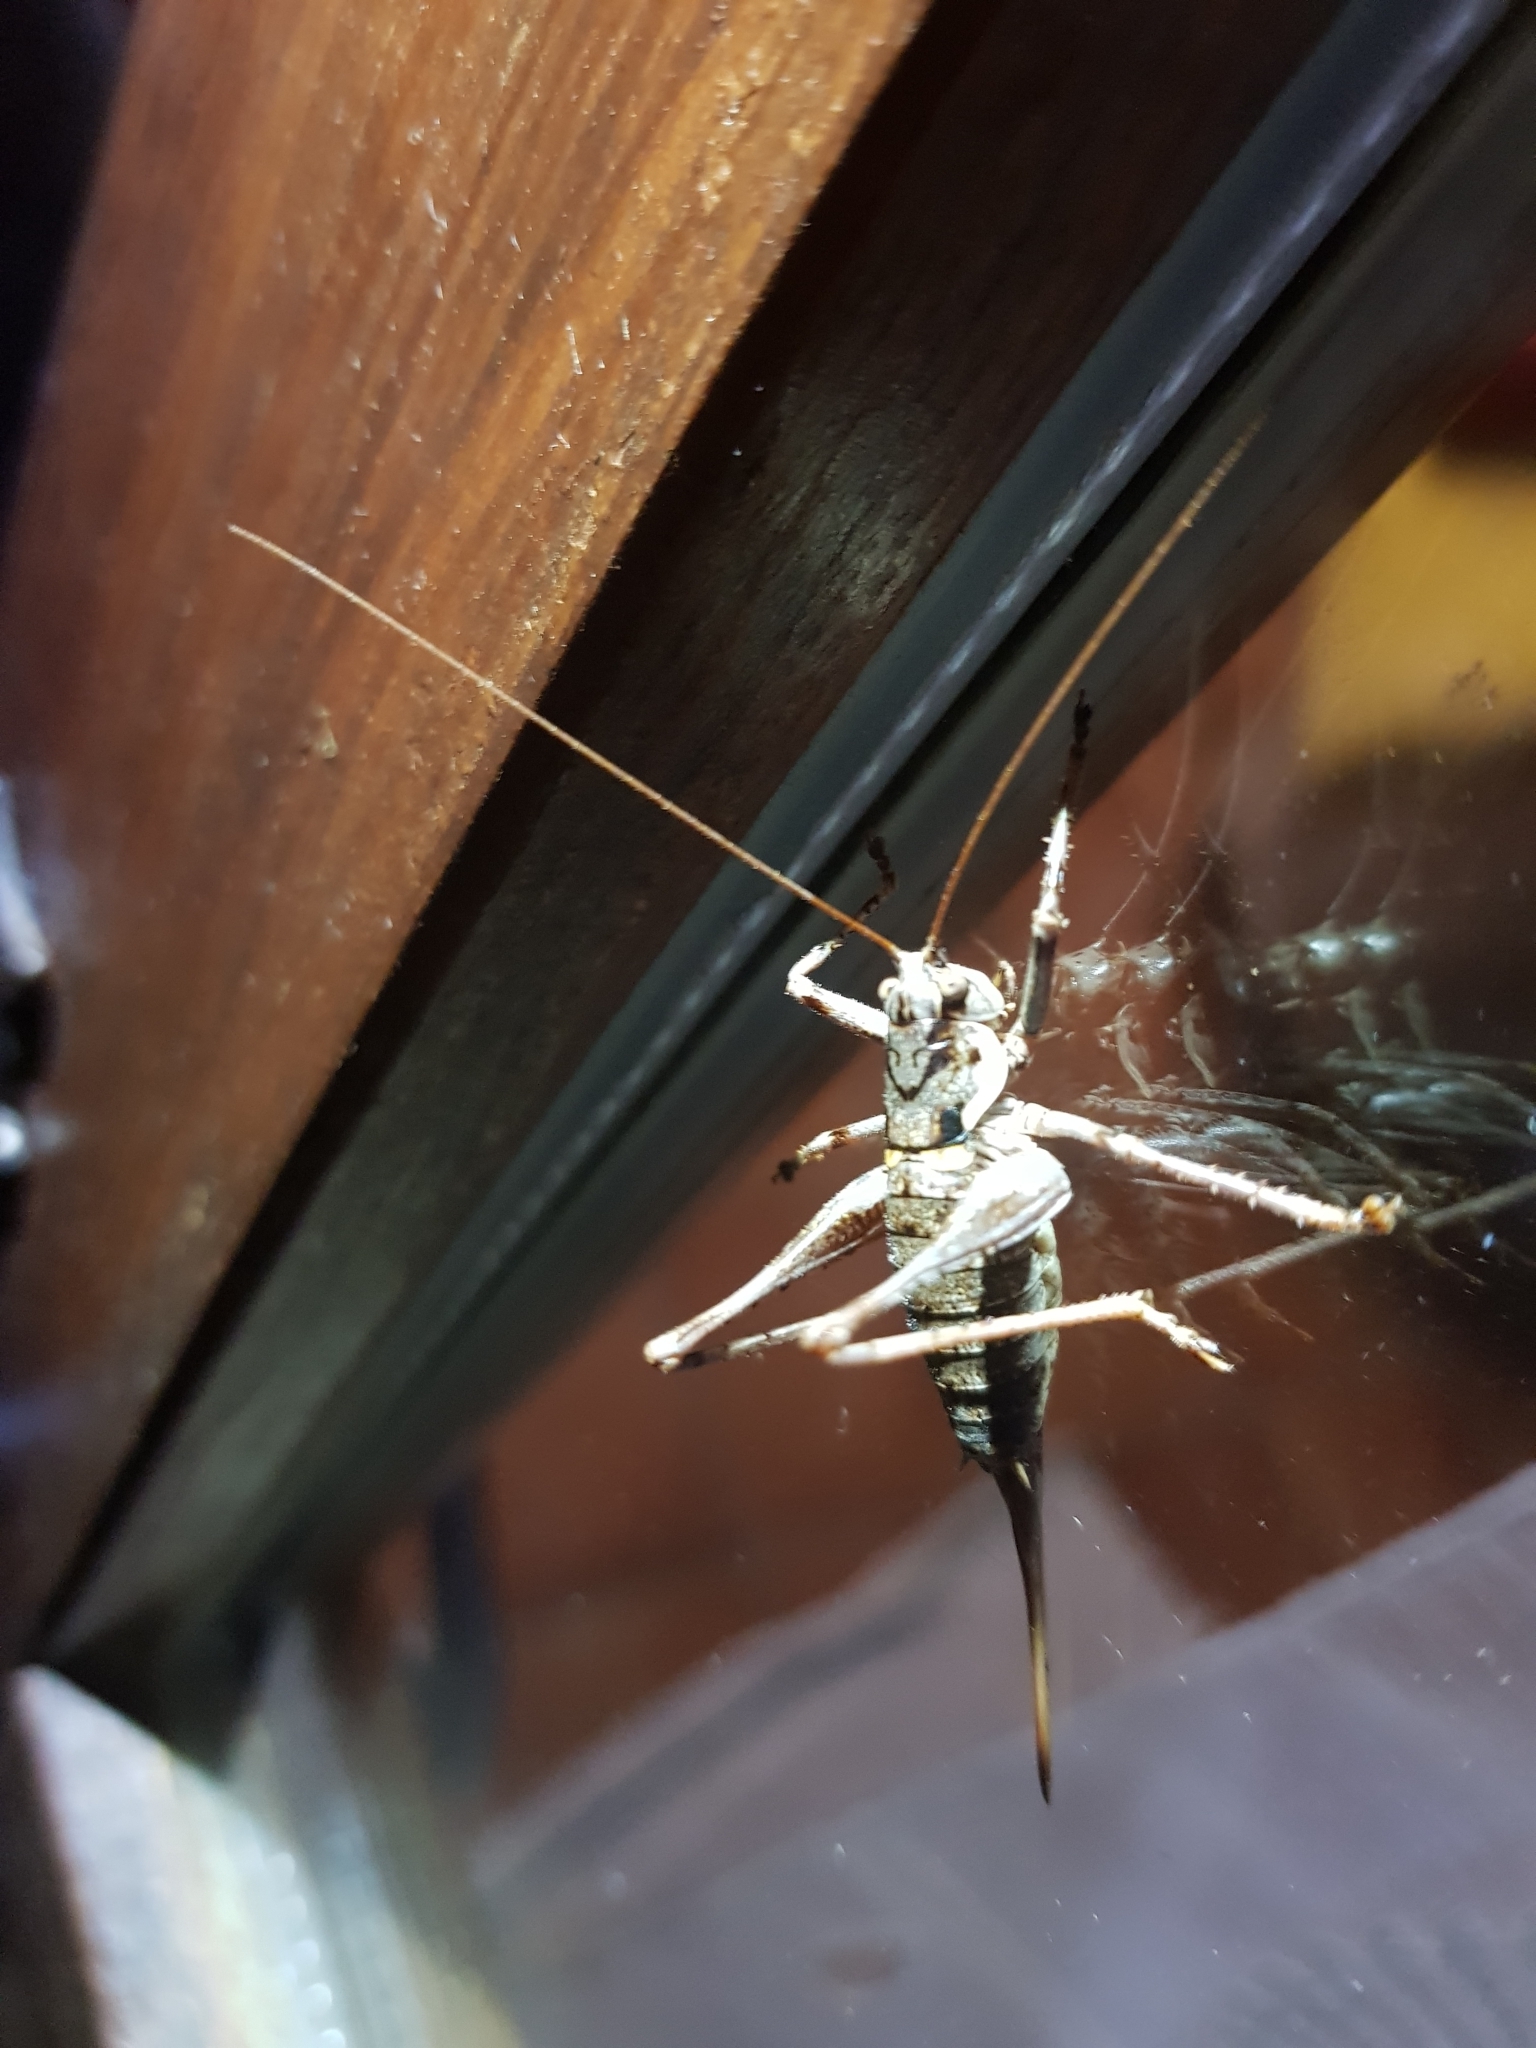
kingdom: Animalia
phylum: Arthropoda
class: Insecta
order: Orthoptera
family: Tettigoniidae
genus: Antaxius
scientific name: Antaxius sorrezensis
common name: French mountain bush-cricket
